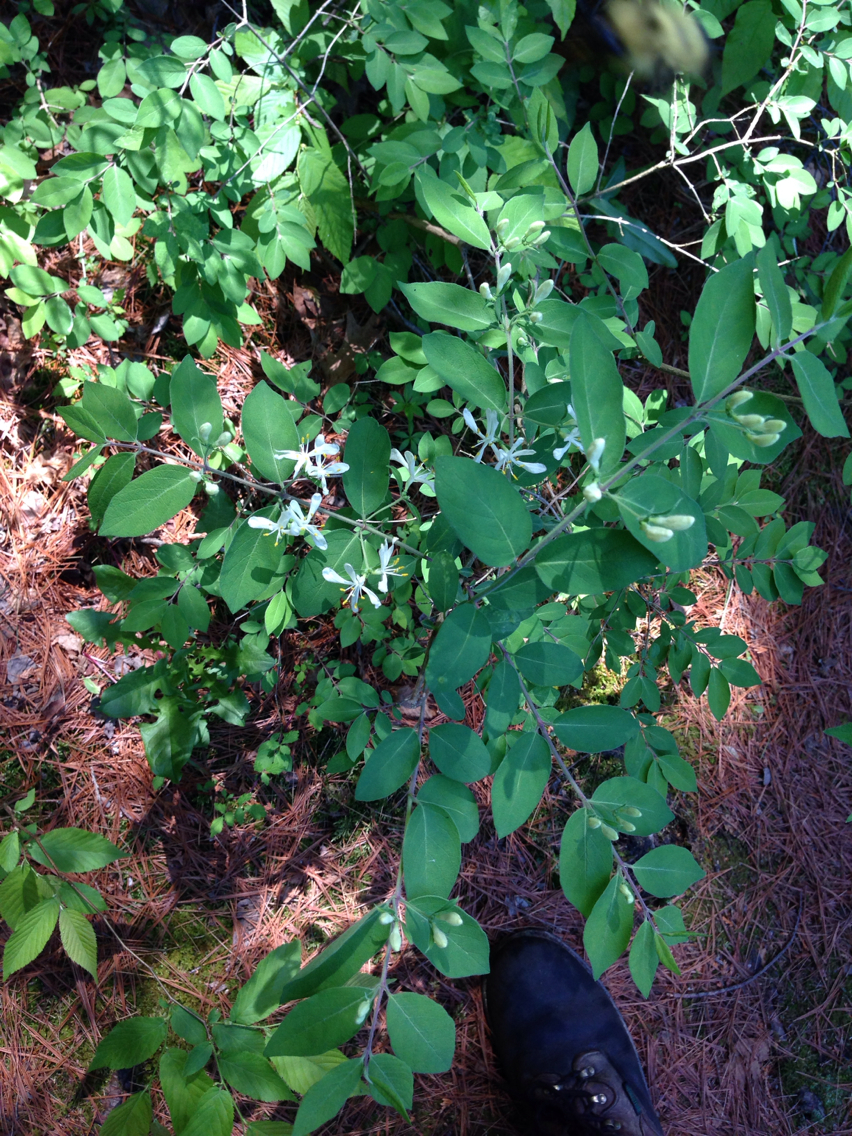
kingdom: Plantae
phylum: Tracheophyta
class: Magnoliopsida
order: Dipsacales
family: Caprifoliaceae
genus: Lonicera
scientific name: Lonicera morrowii
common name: Morrow's honeysuckle
